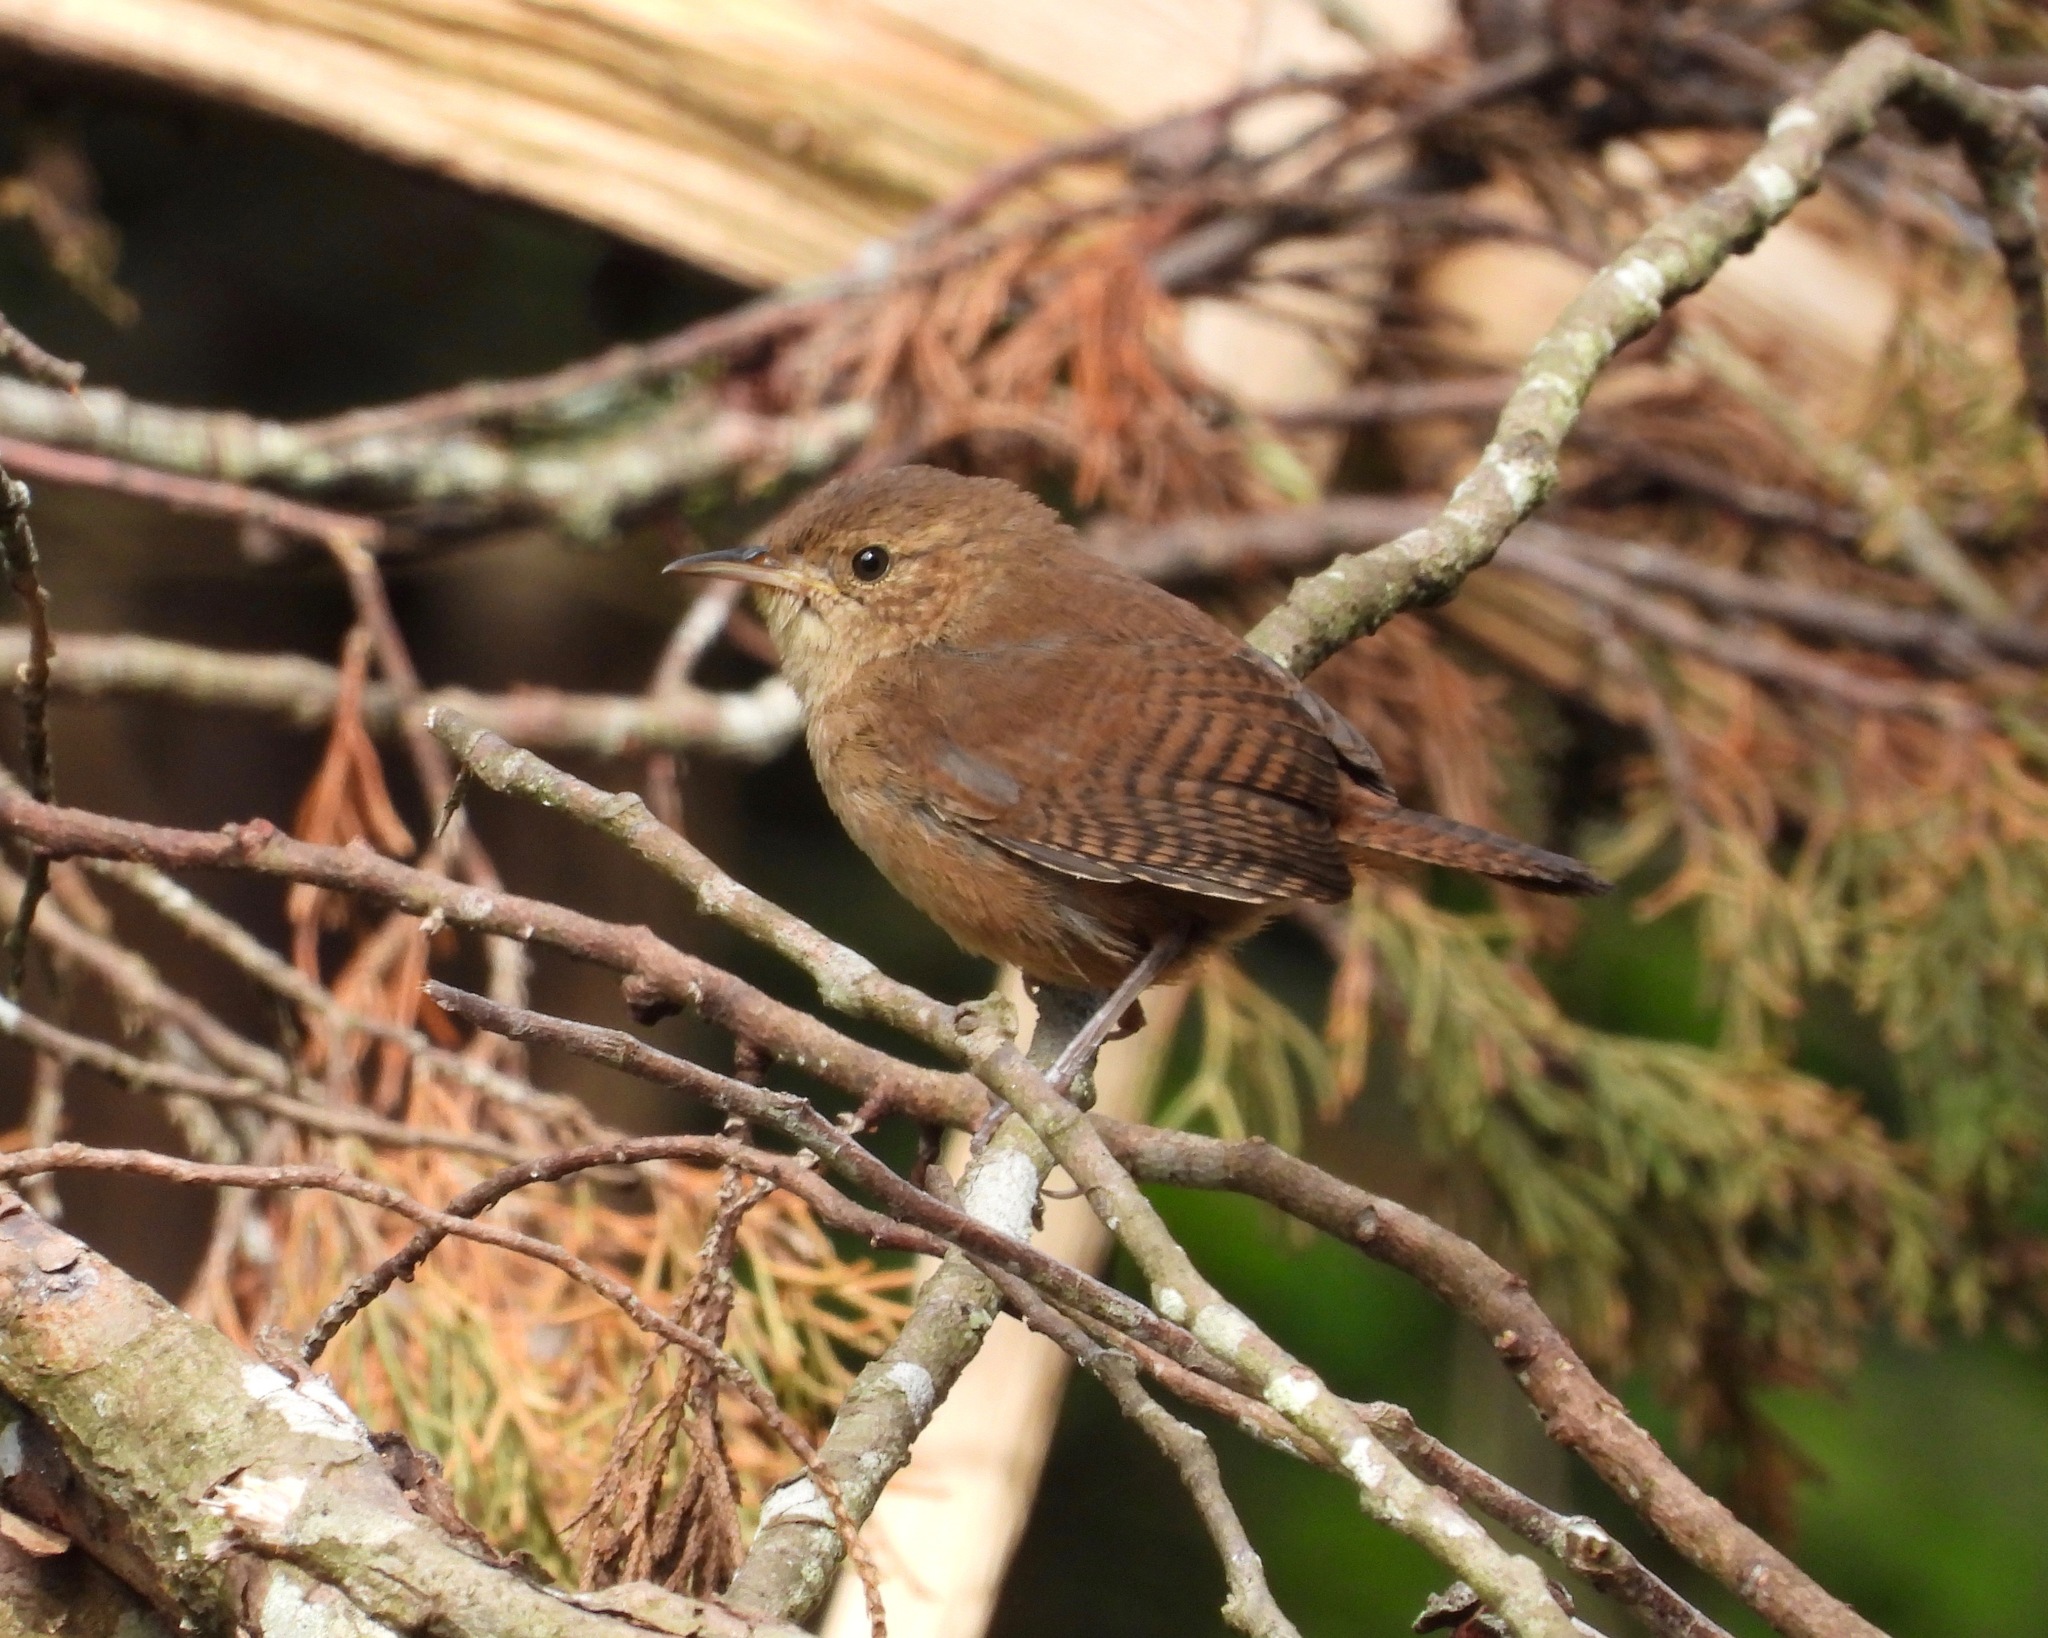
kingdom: Animalia
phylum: Chordata
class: Aves
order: Passeriformes
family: Troglodytidae
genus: Troglodytes
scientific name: Troglodytes aedon
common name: House wren
